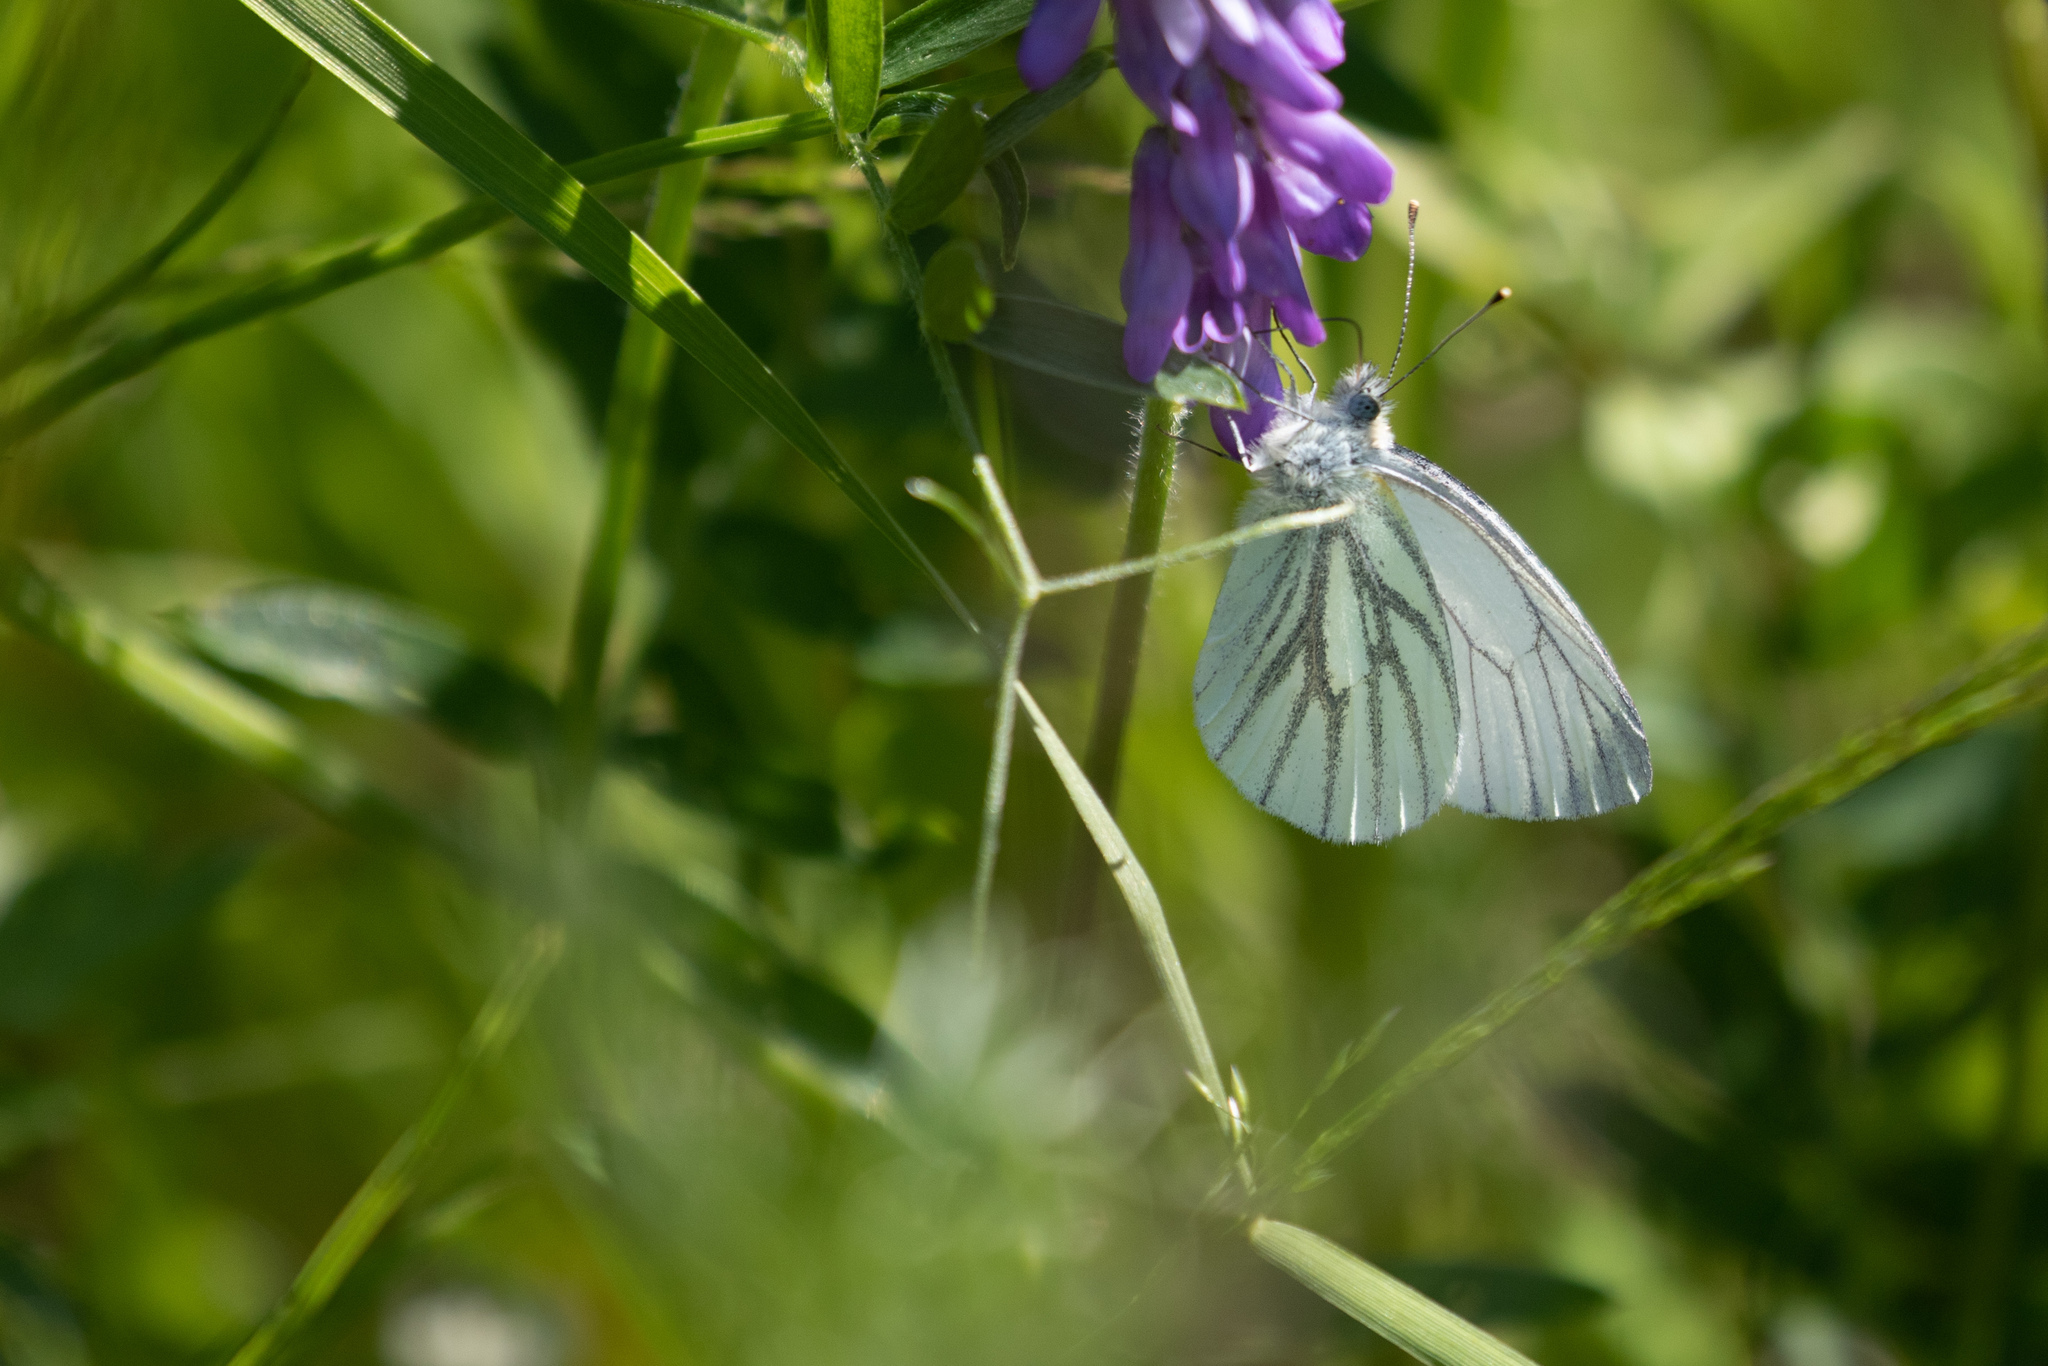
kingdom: Animalia
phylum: Arthropoda
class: Insecta
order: Lepidoptera
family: Pieridae
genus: Pieris
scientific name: Pieris napi
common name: Green-veined white
